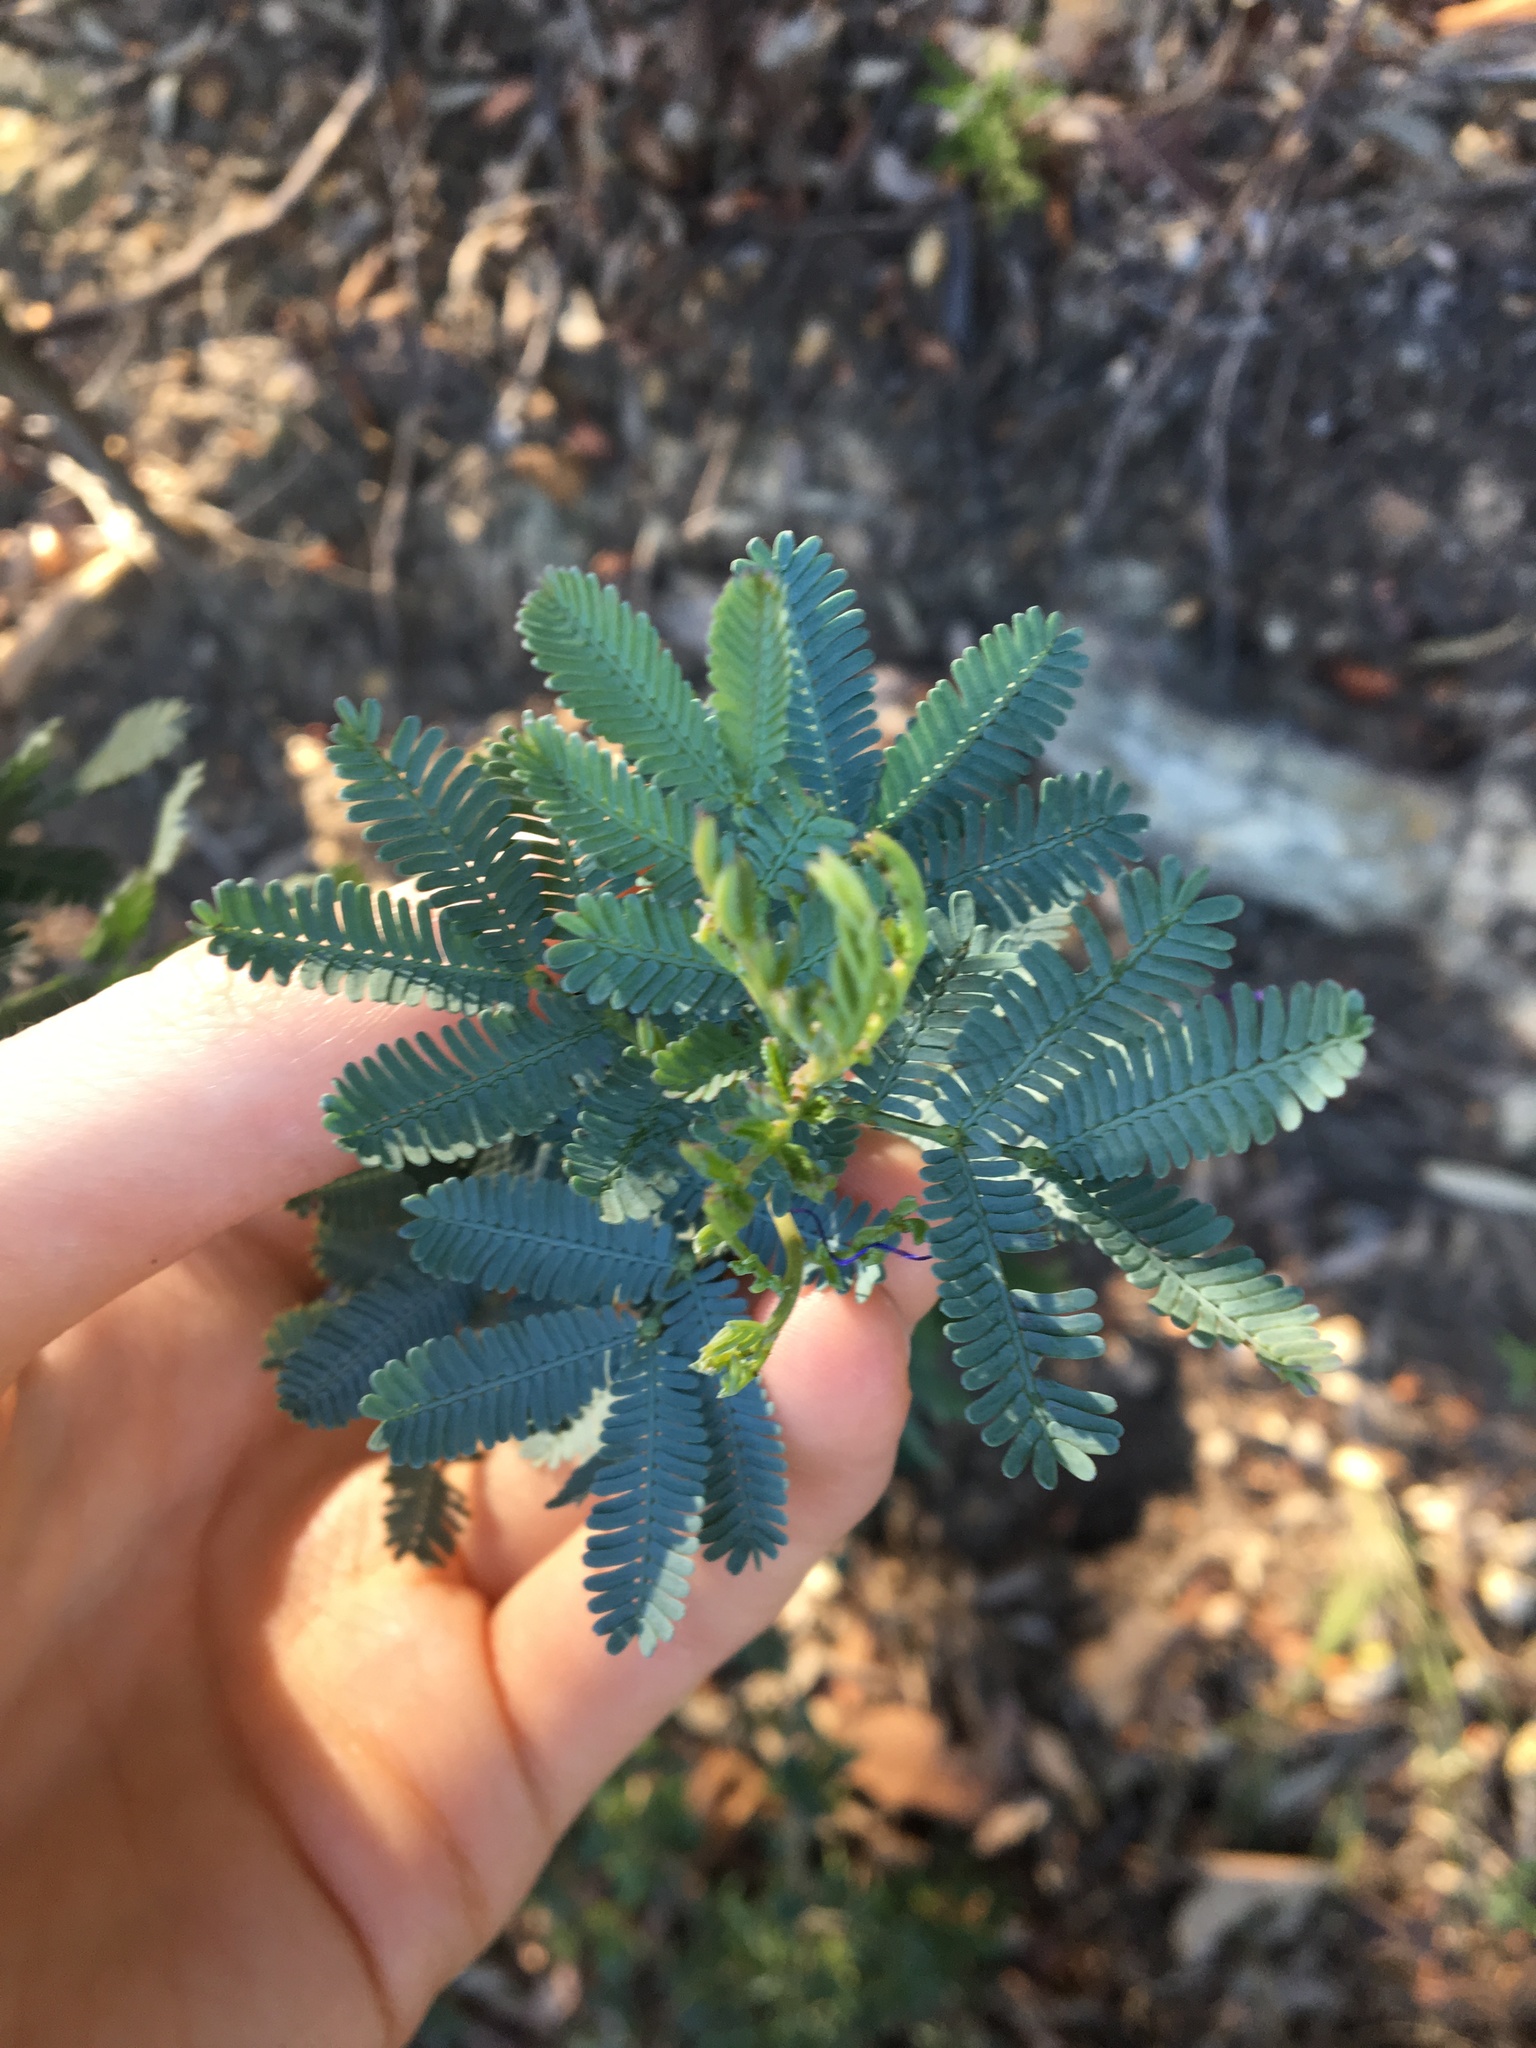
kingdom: Plantae
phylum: Tracheophyta
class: Magnoliopsida
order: Fabales
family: Fabaceae
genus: Acacia
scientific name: Acacia baileyana
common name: Cootamundra wattle
